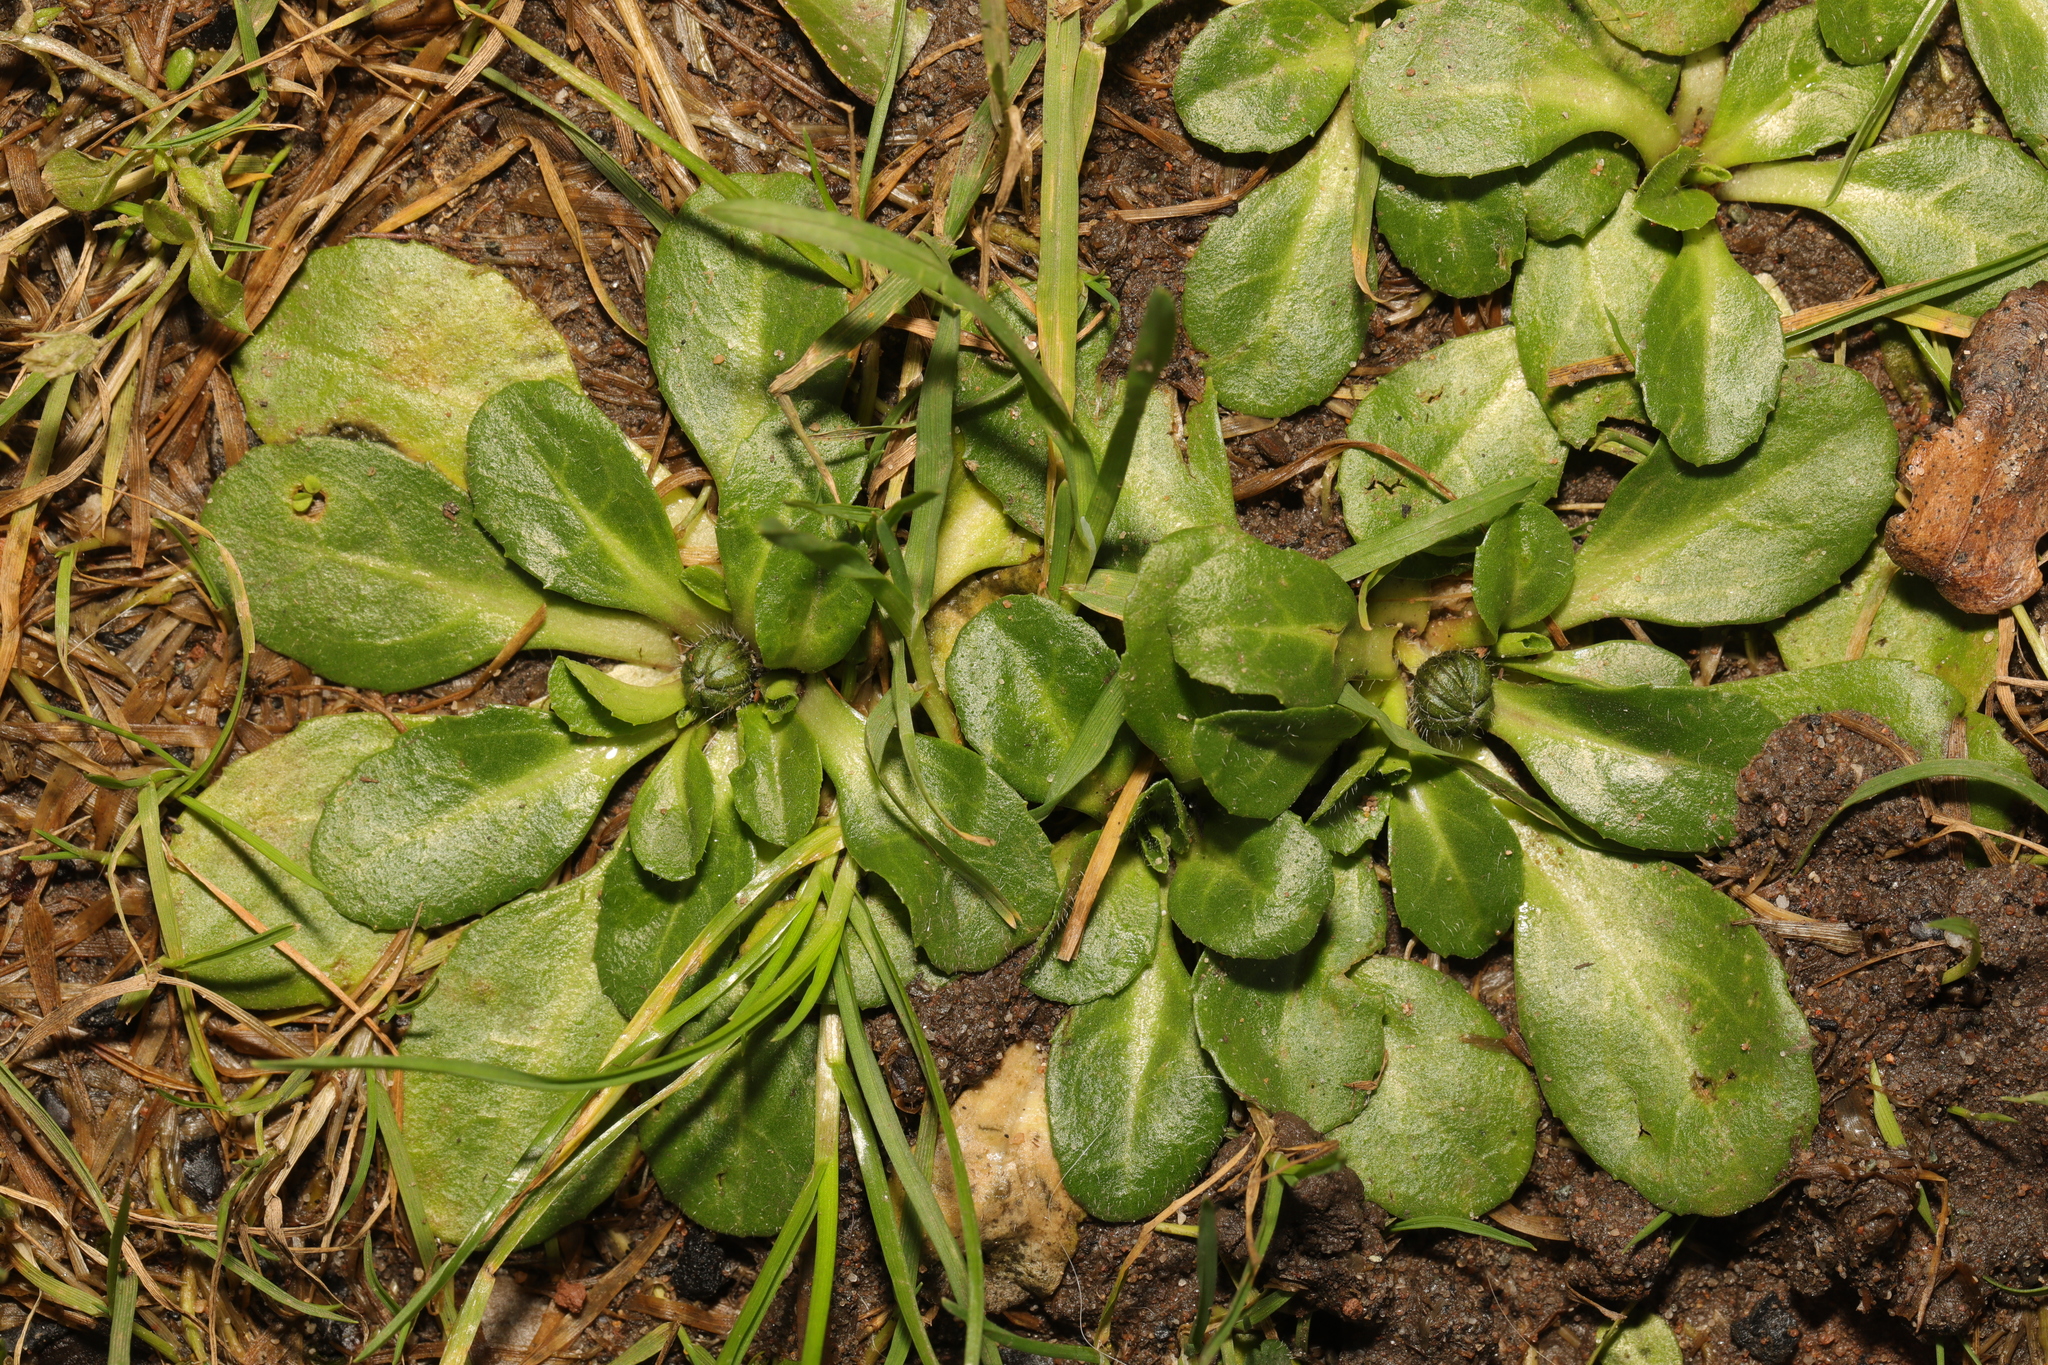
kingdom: Plantae
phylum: Tracheophyta
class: Magnoliopsida
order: Asterales
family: Asteraceae
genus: Bellis
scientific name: Bellis perennis
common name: Lawndaisy
